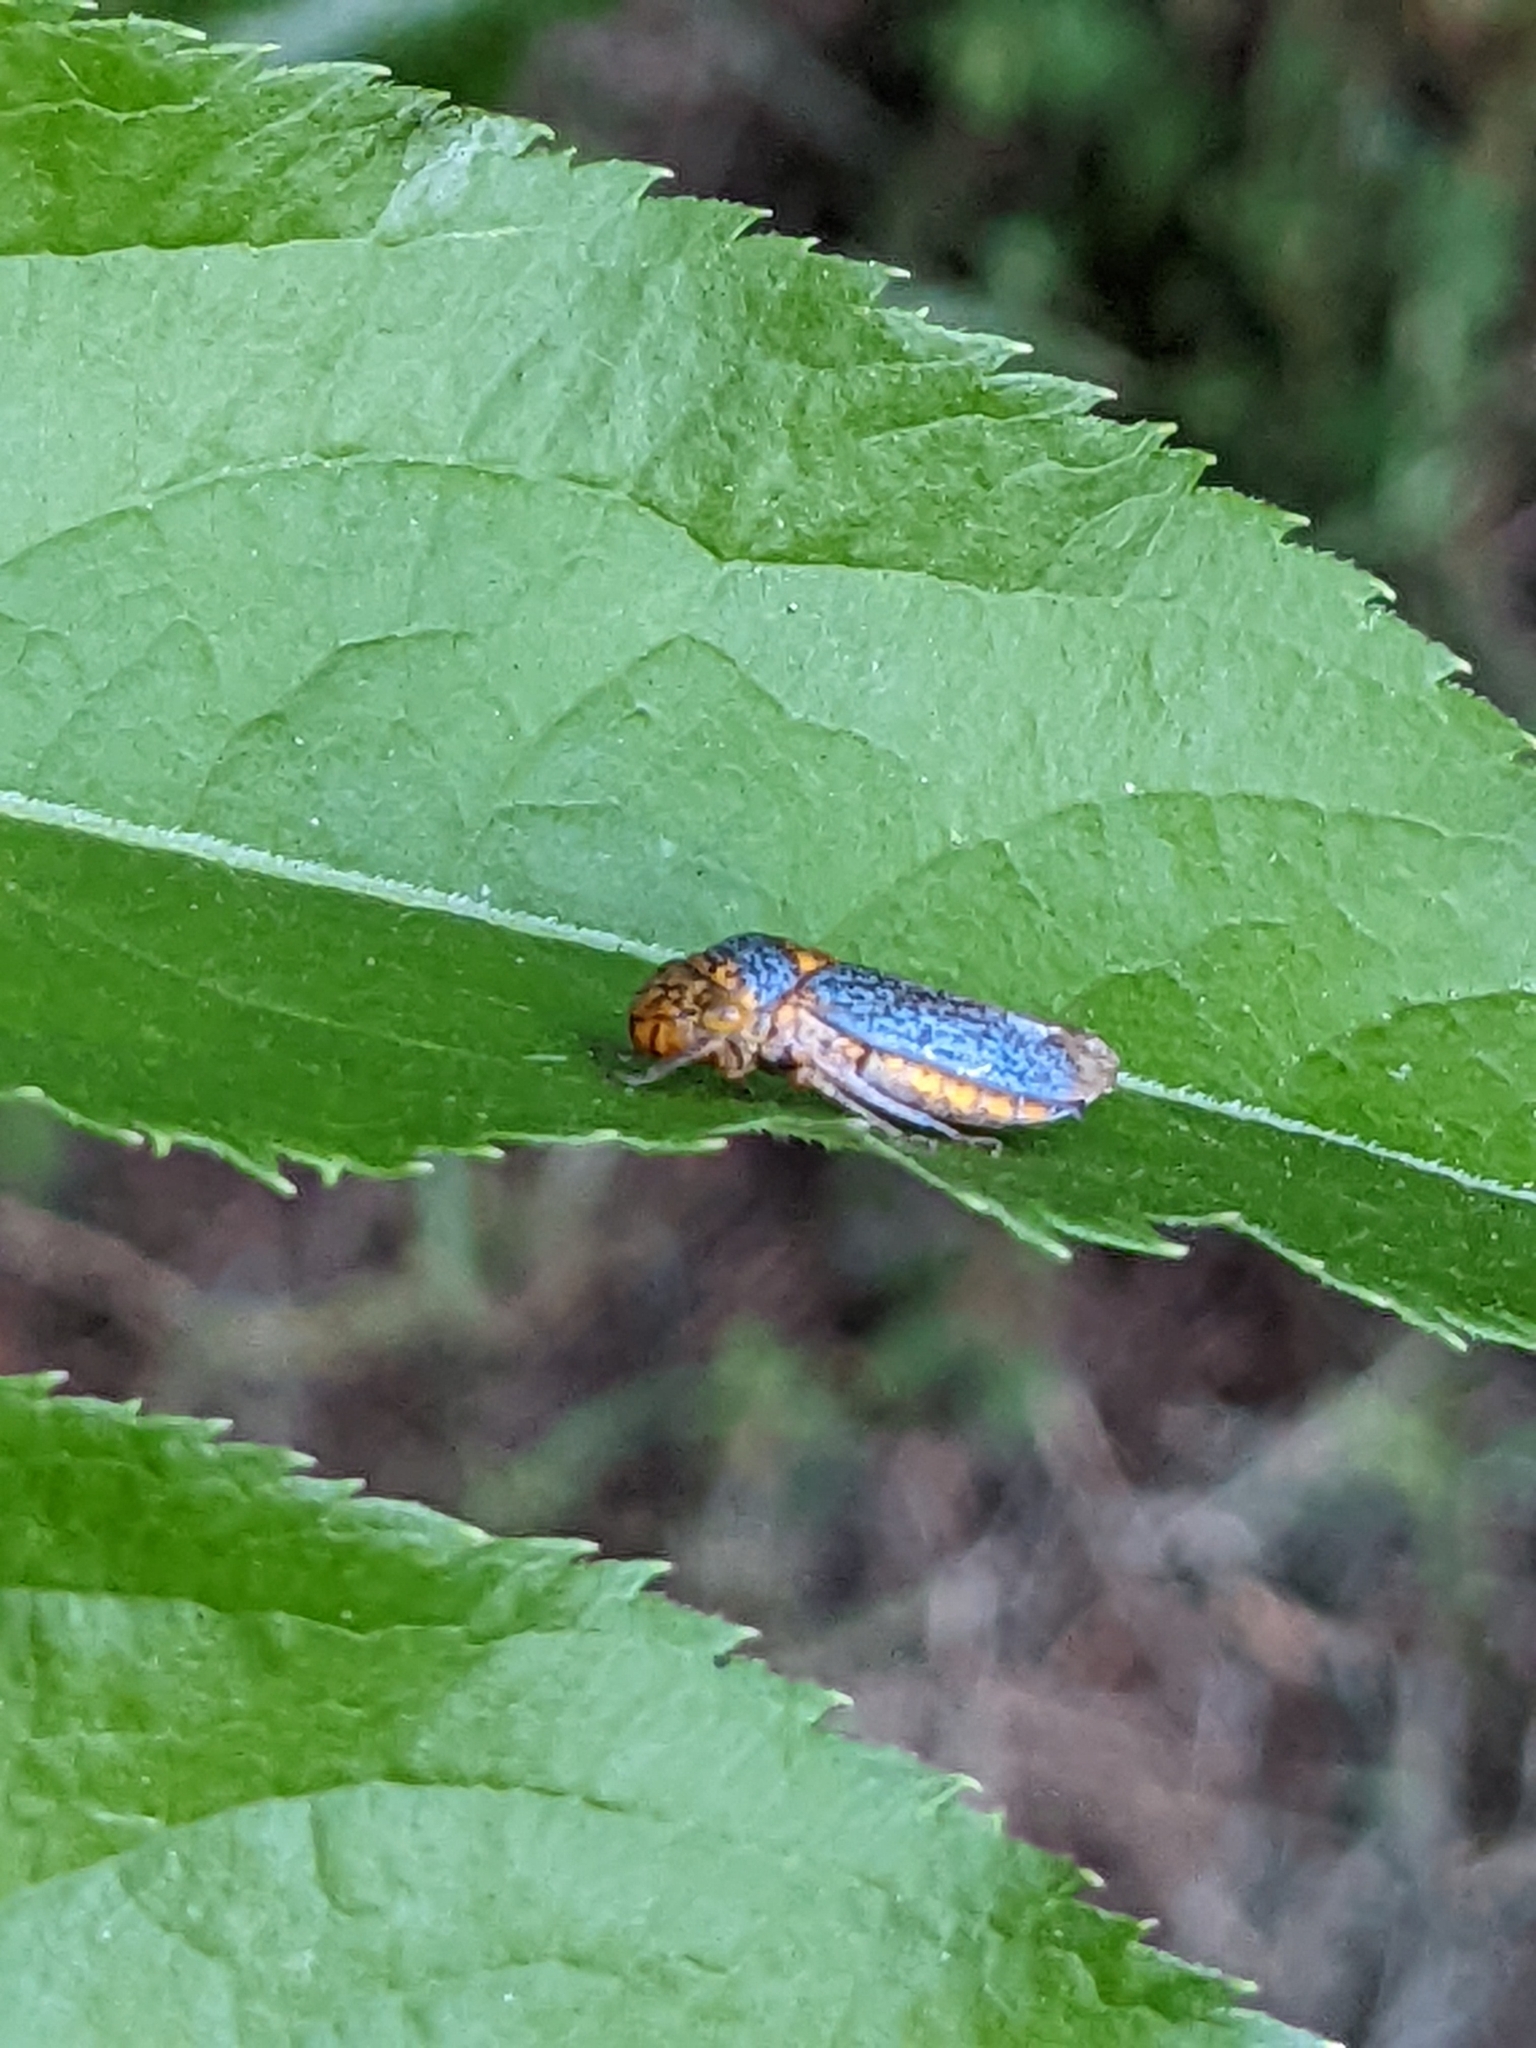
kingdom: Animalia
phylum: Arthropoda
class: Insecta
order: Hemiptera
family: Cicadellidae
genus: Oncometopia
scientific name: Oncometopia orbona
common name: Broad-headed sharpshooter
